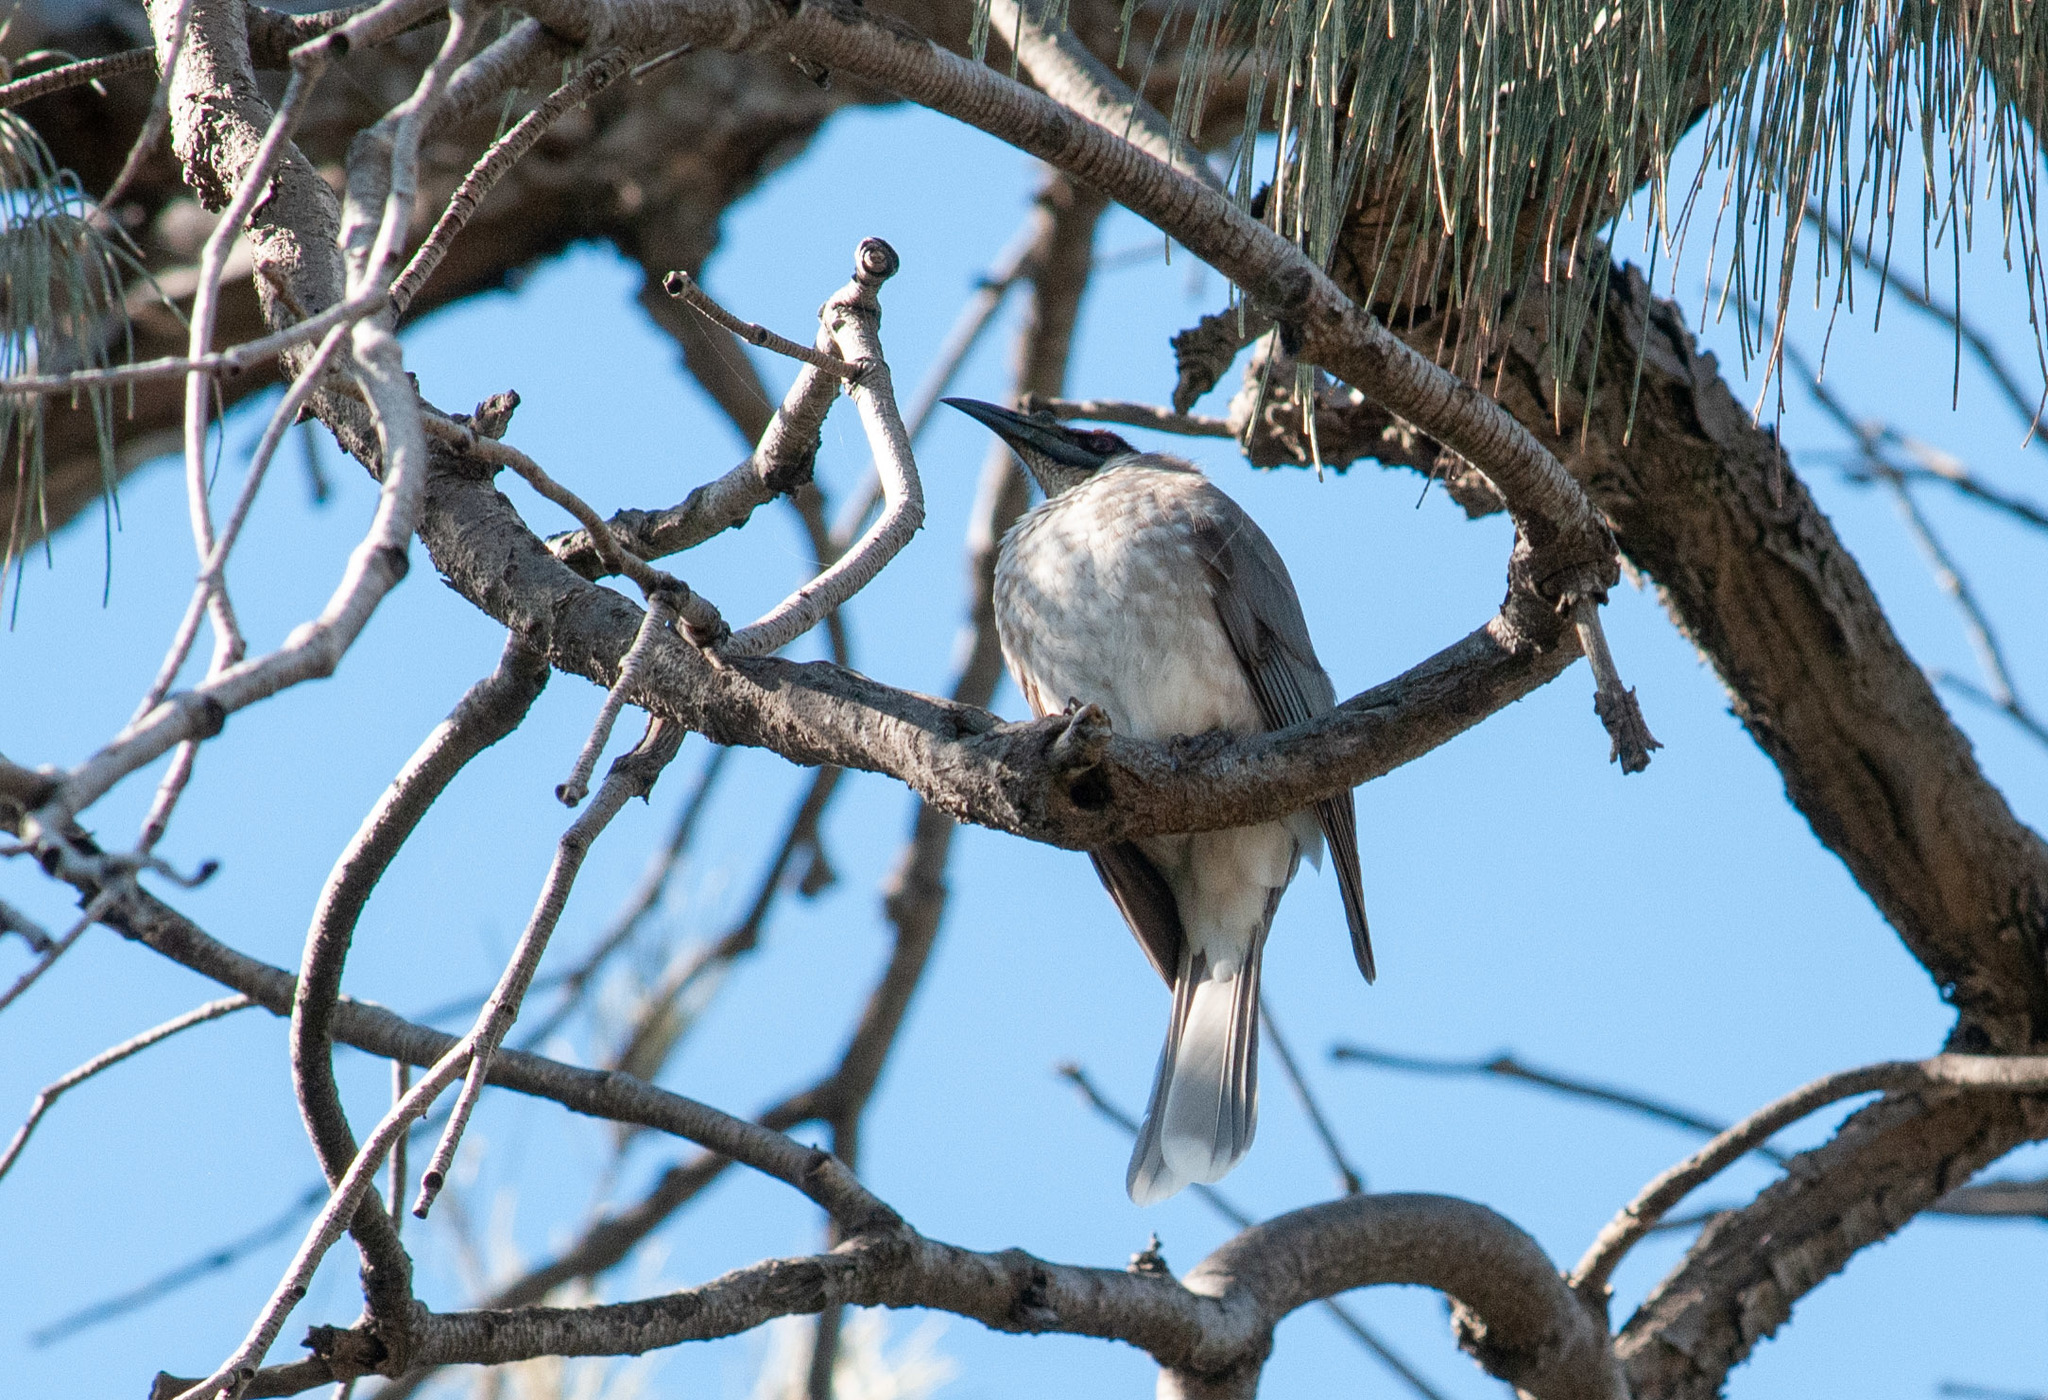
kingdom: Animalia
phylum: Chordata
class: Aves
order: Passeriformes
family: Meliphagidae
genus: Philemon
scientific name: Philemon corniculatus
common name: Noisy friarbird
